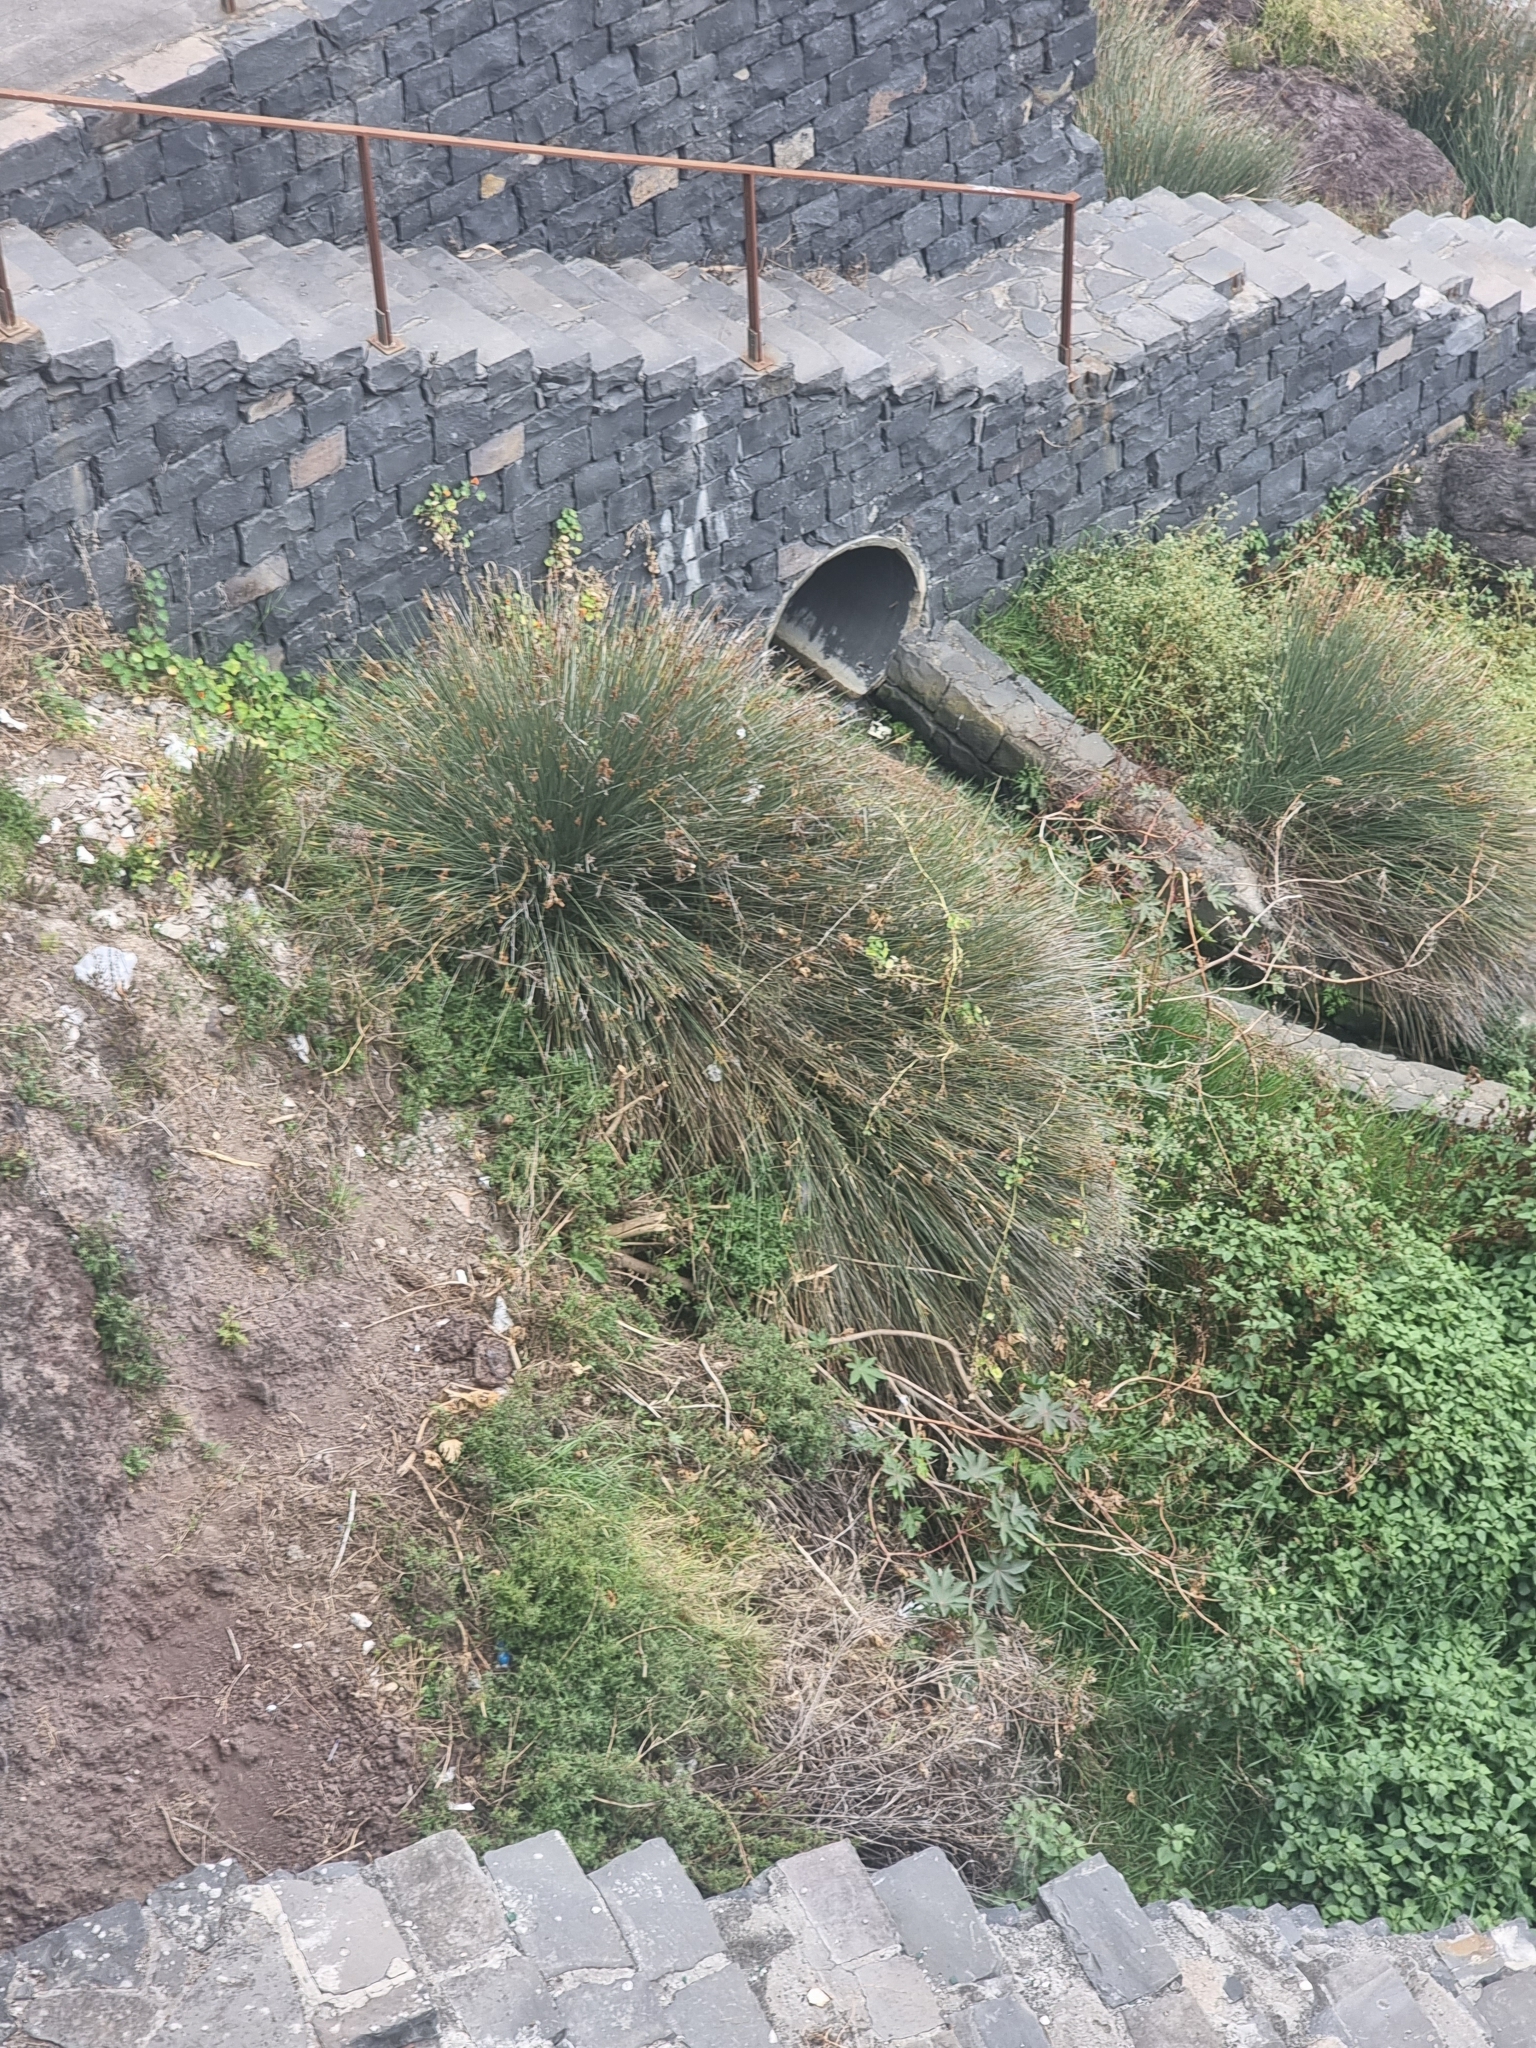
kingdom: Plantae
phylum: Tracheophyta
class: Liliopsida
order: Poales
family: Juncaceae
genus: Juncus
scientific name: Juncus acutus
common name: Sharp rush
